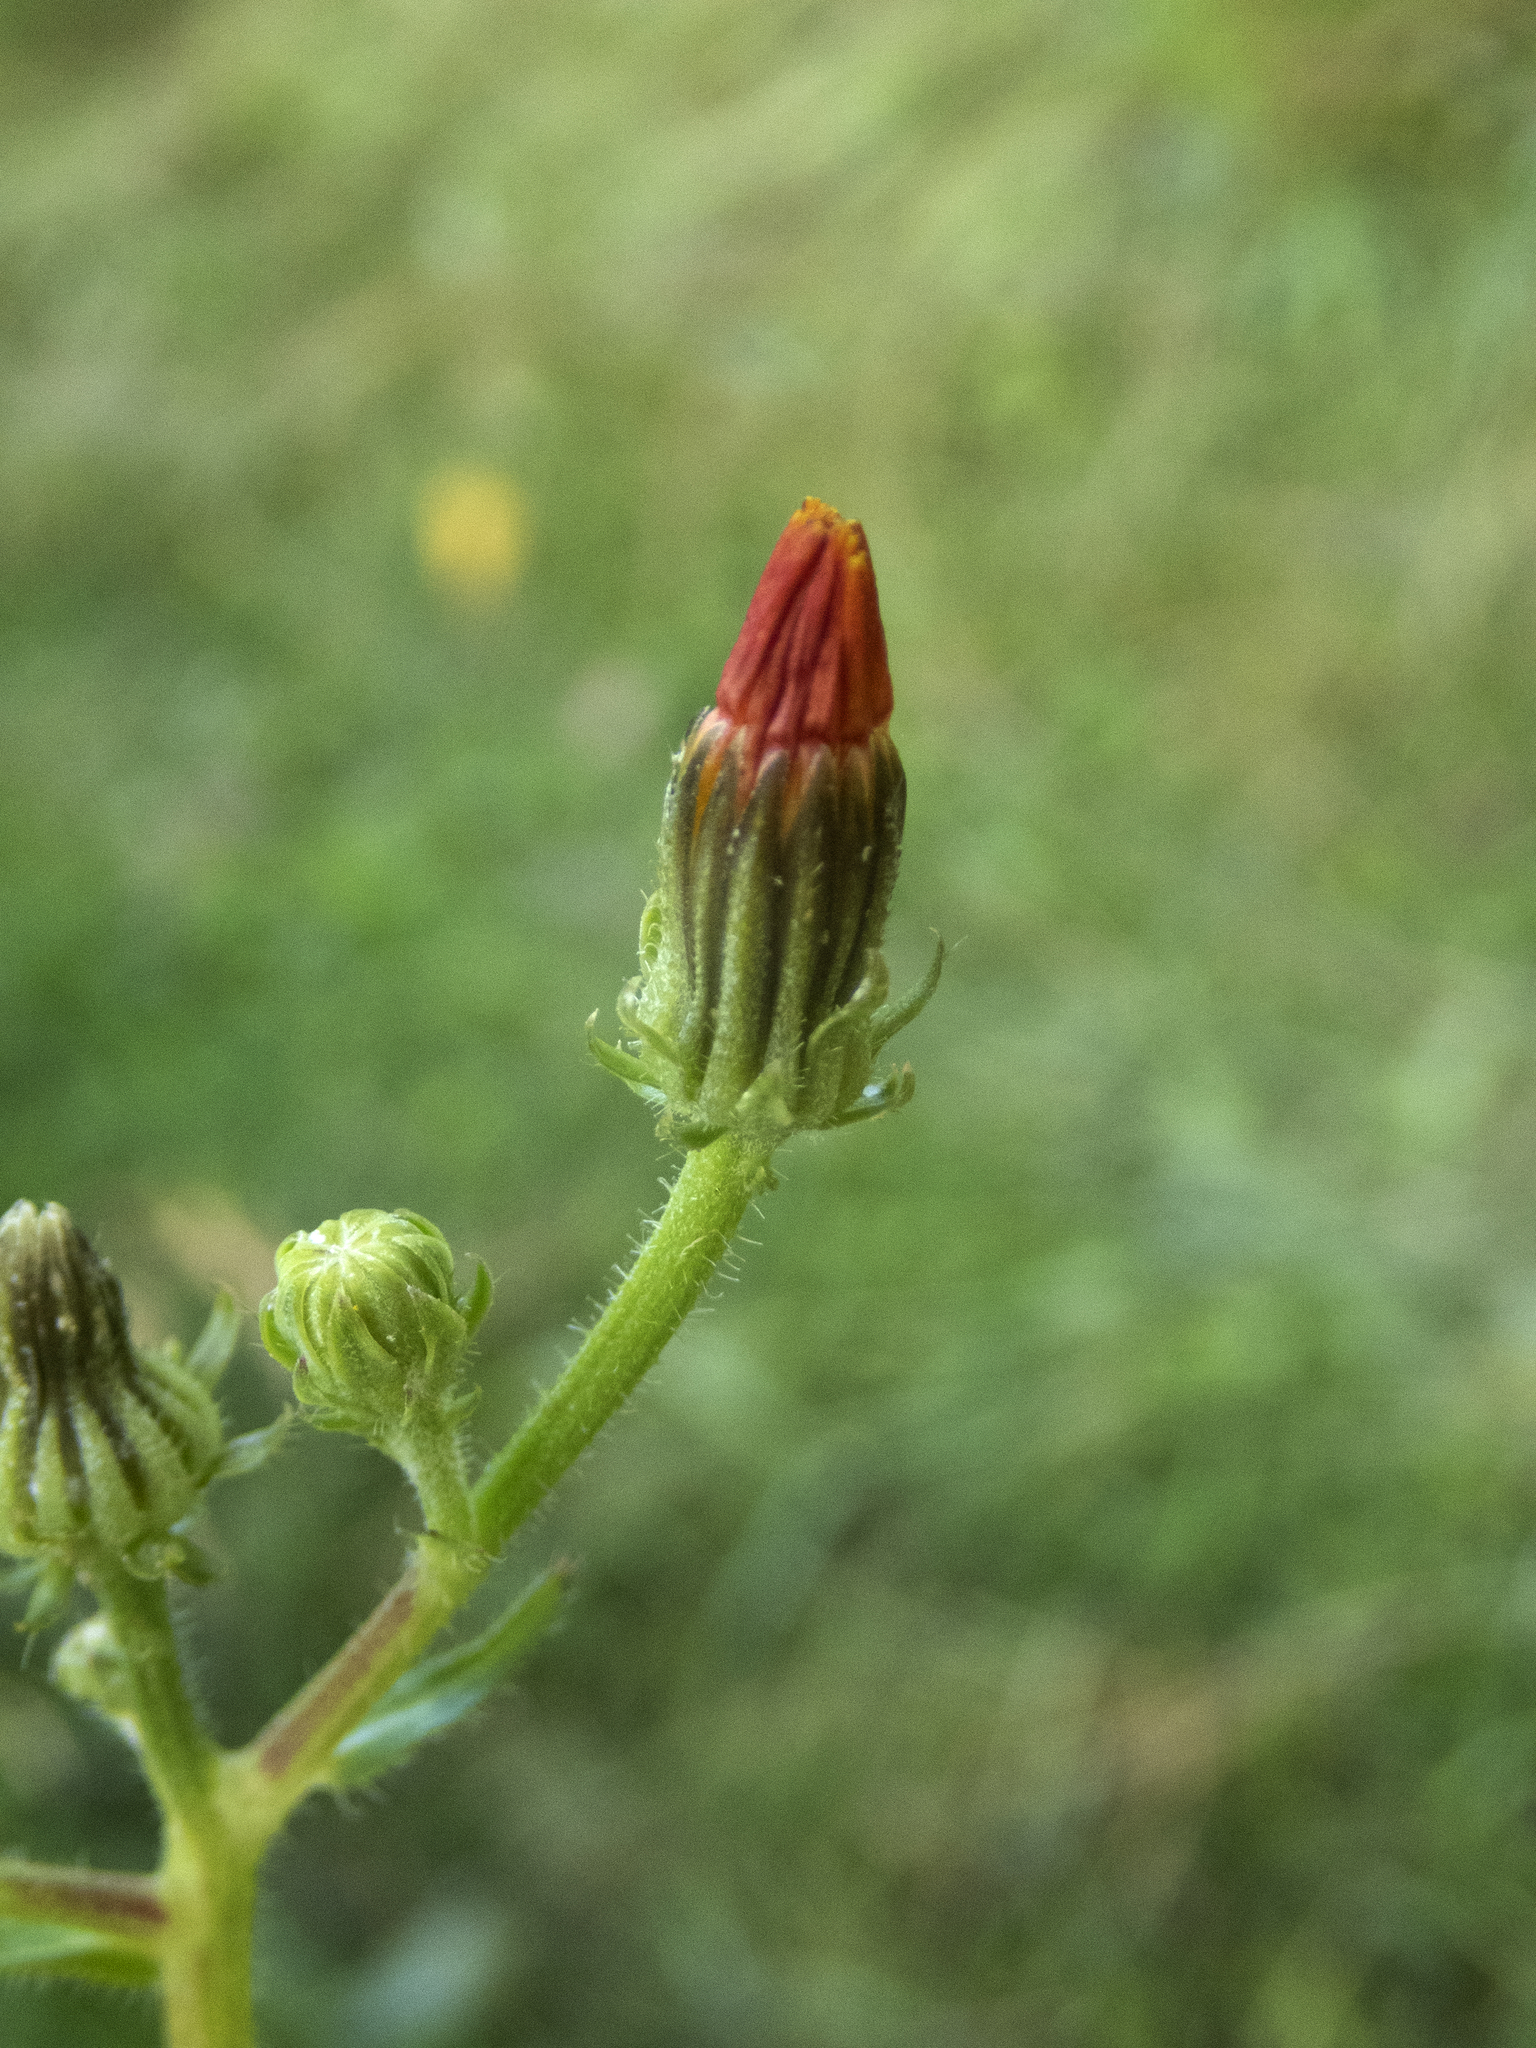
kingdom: Plantae
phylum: Tracheophyta
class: Magnoliopsida
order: Asterales
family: Asteraceae
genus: Picris
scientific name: Picris hieracioides
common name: Hawkweed oxtongue
